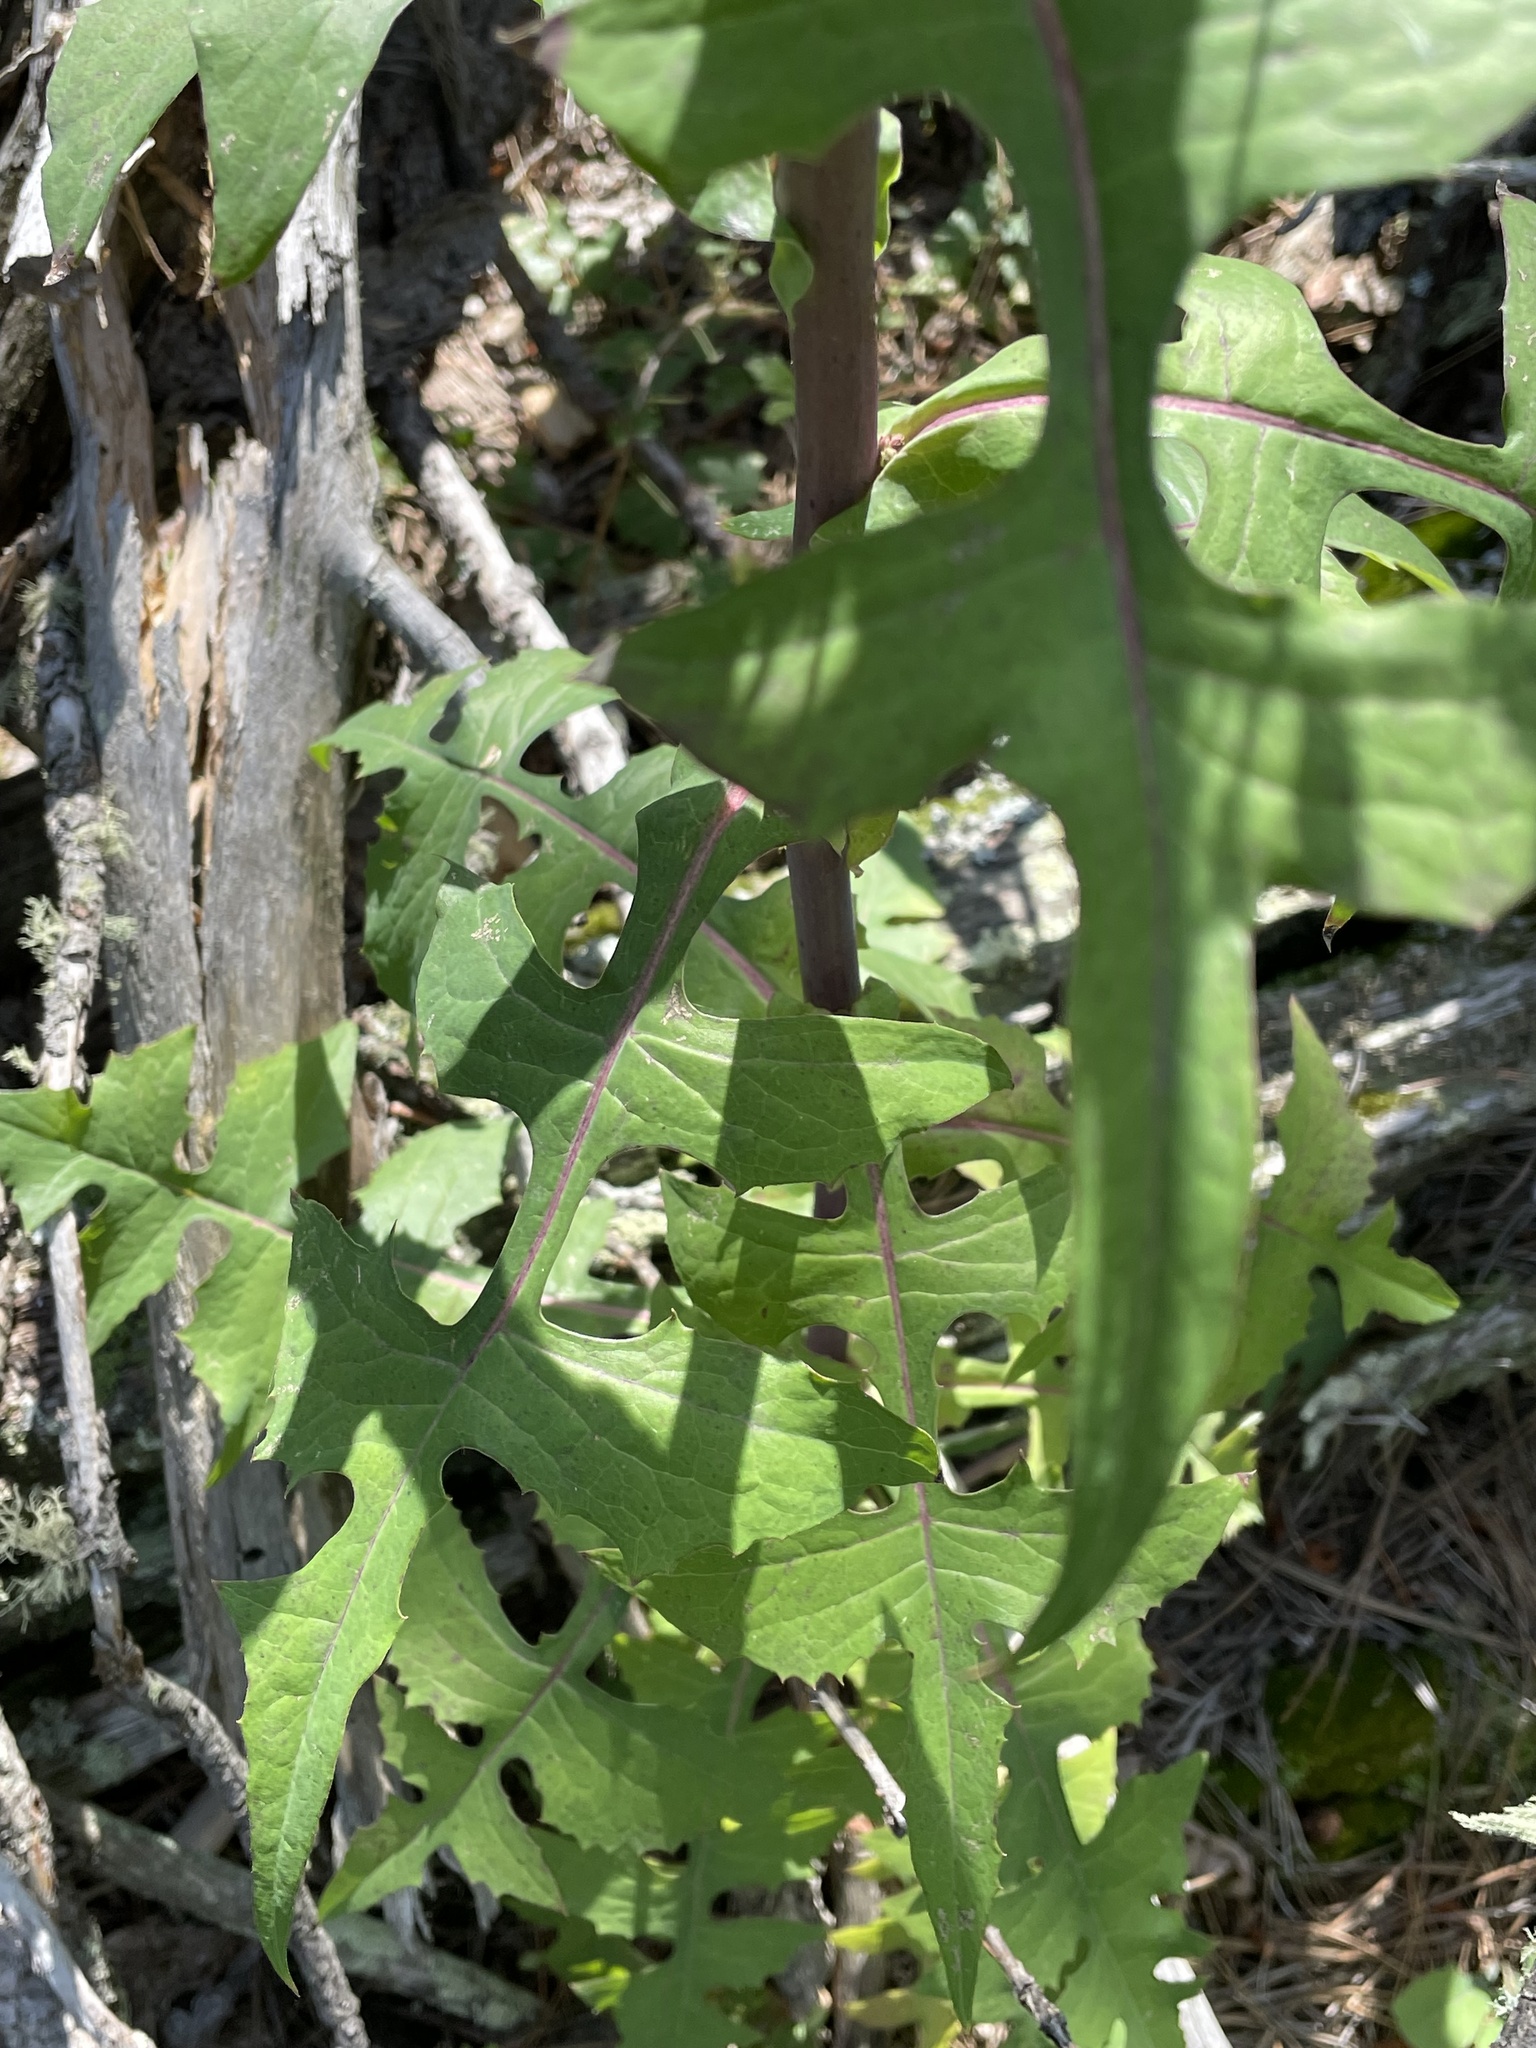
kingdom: Plantae
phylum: Tracheophyta
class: Magnoliopsida
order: Asterales
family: Asteraceae
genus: Lactuca
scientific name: Lactuca canadensis
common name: Canada lettuce
